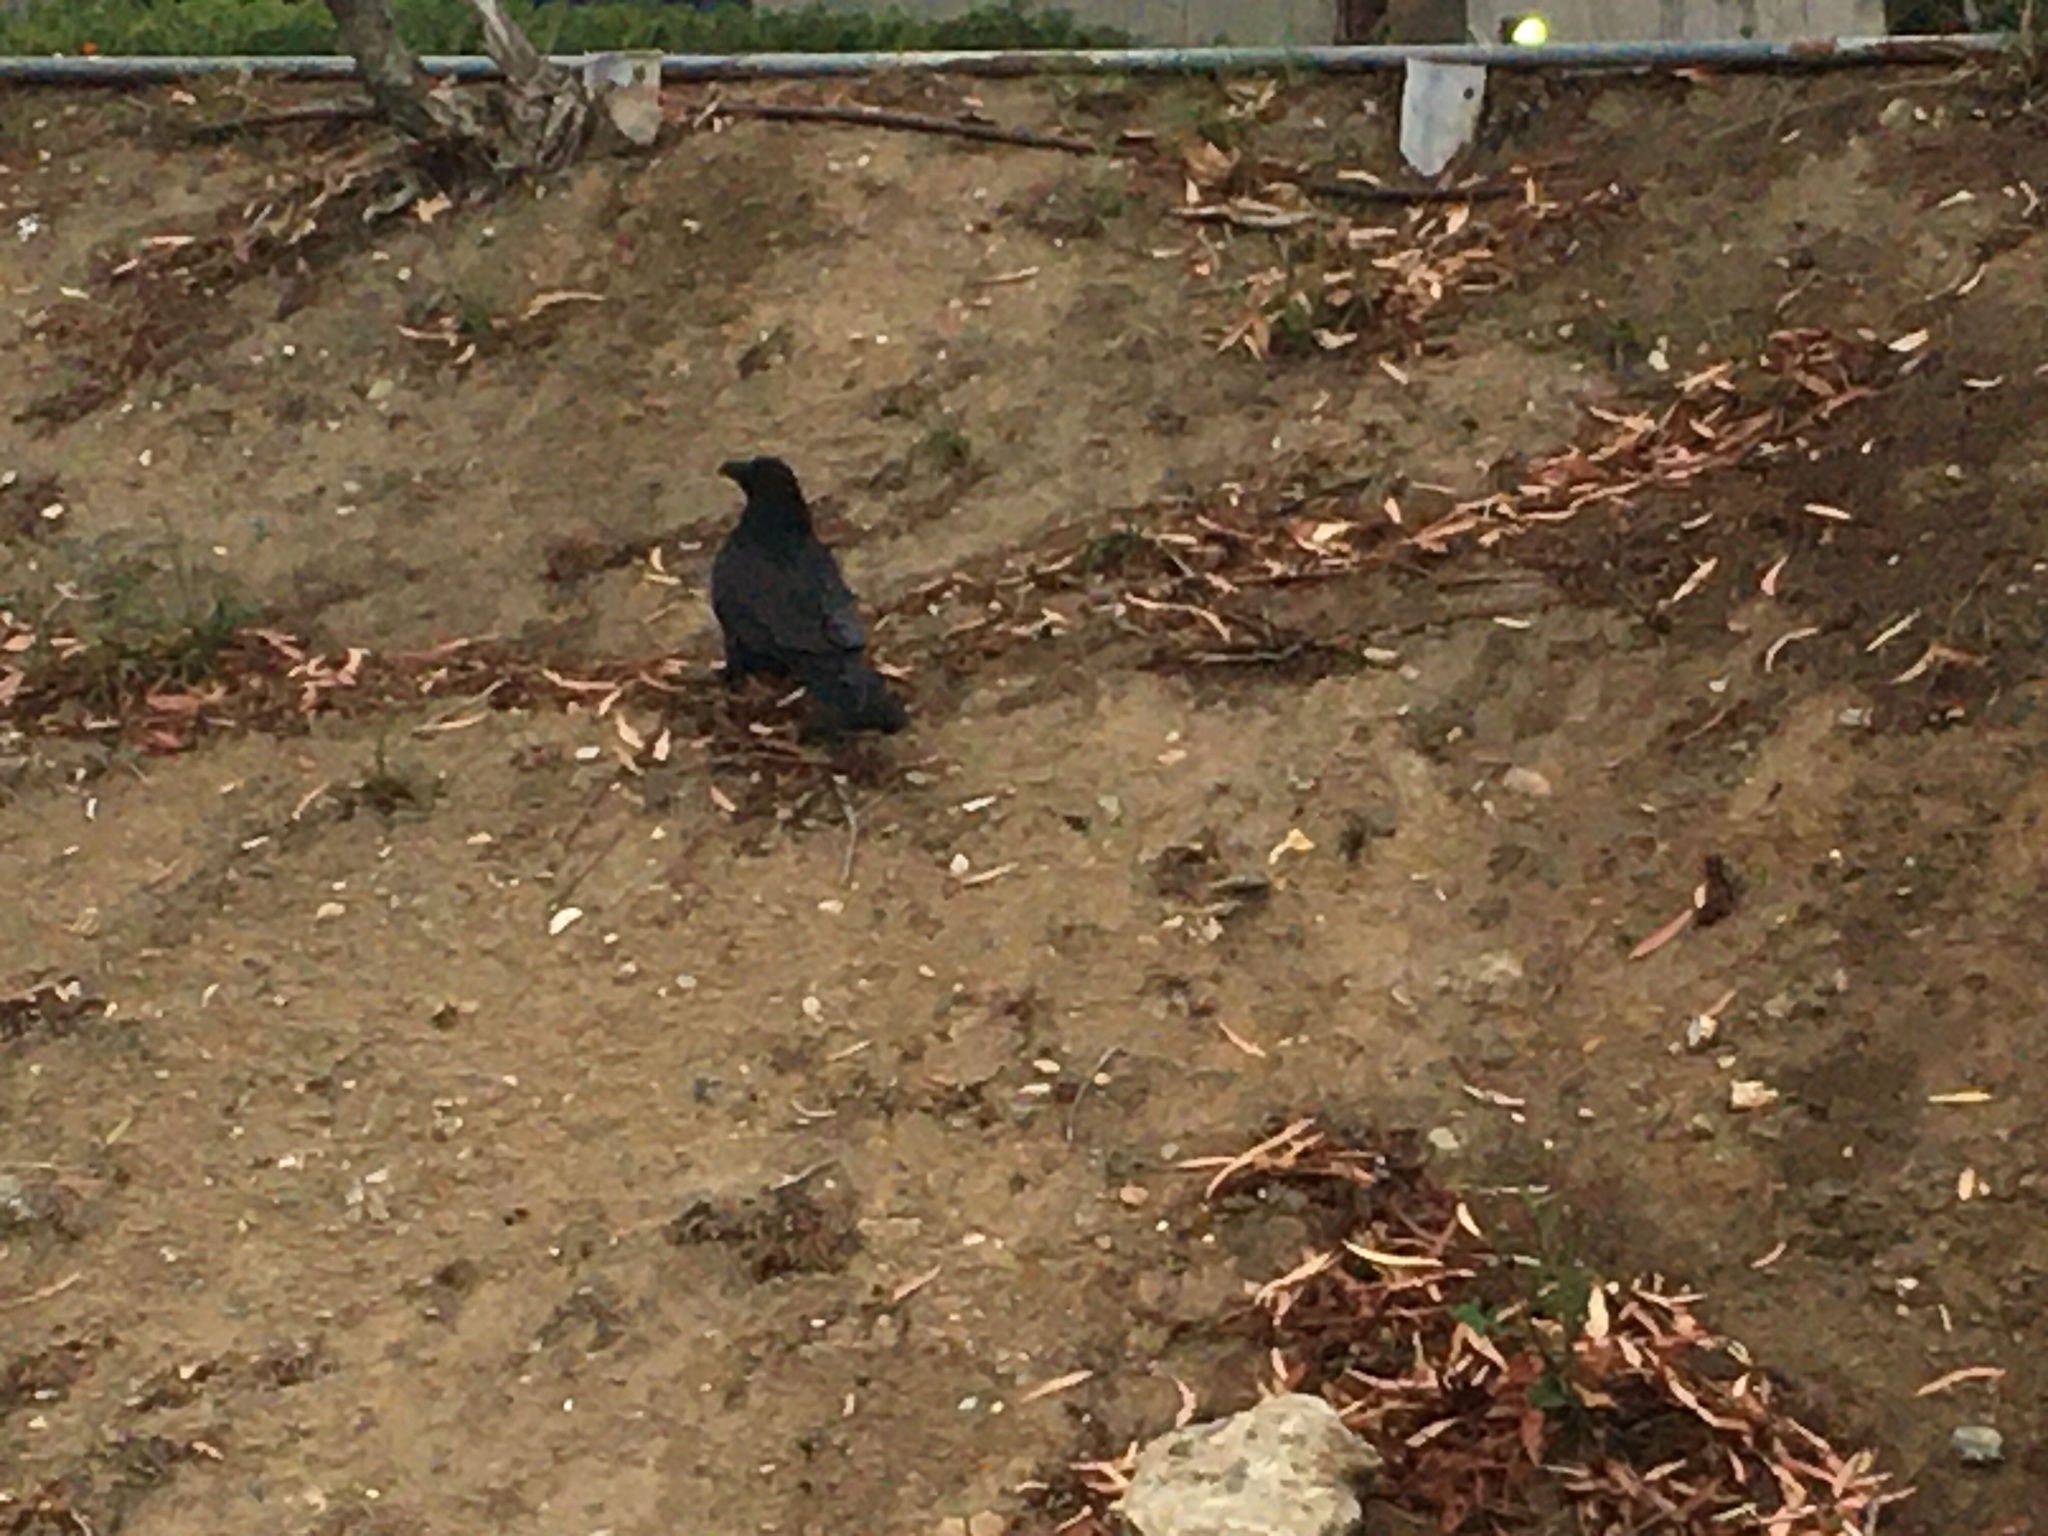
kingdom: Animalia
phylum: Chordata
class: Aves
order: Passeriformes
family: Corvidae
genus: Corvus
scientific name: Corvus corax
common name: Common raven
